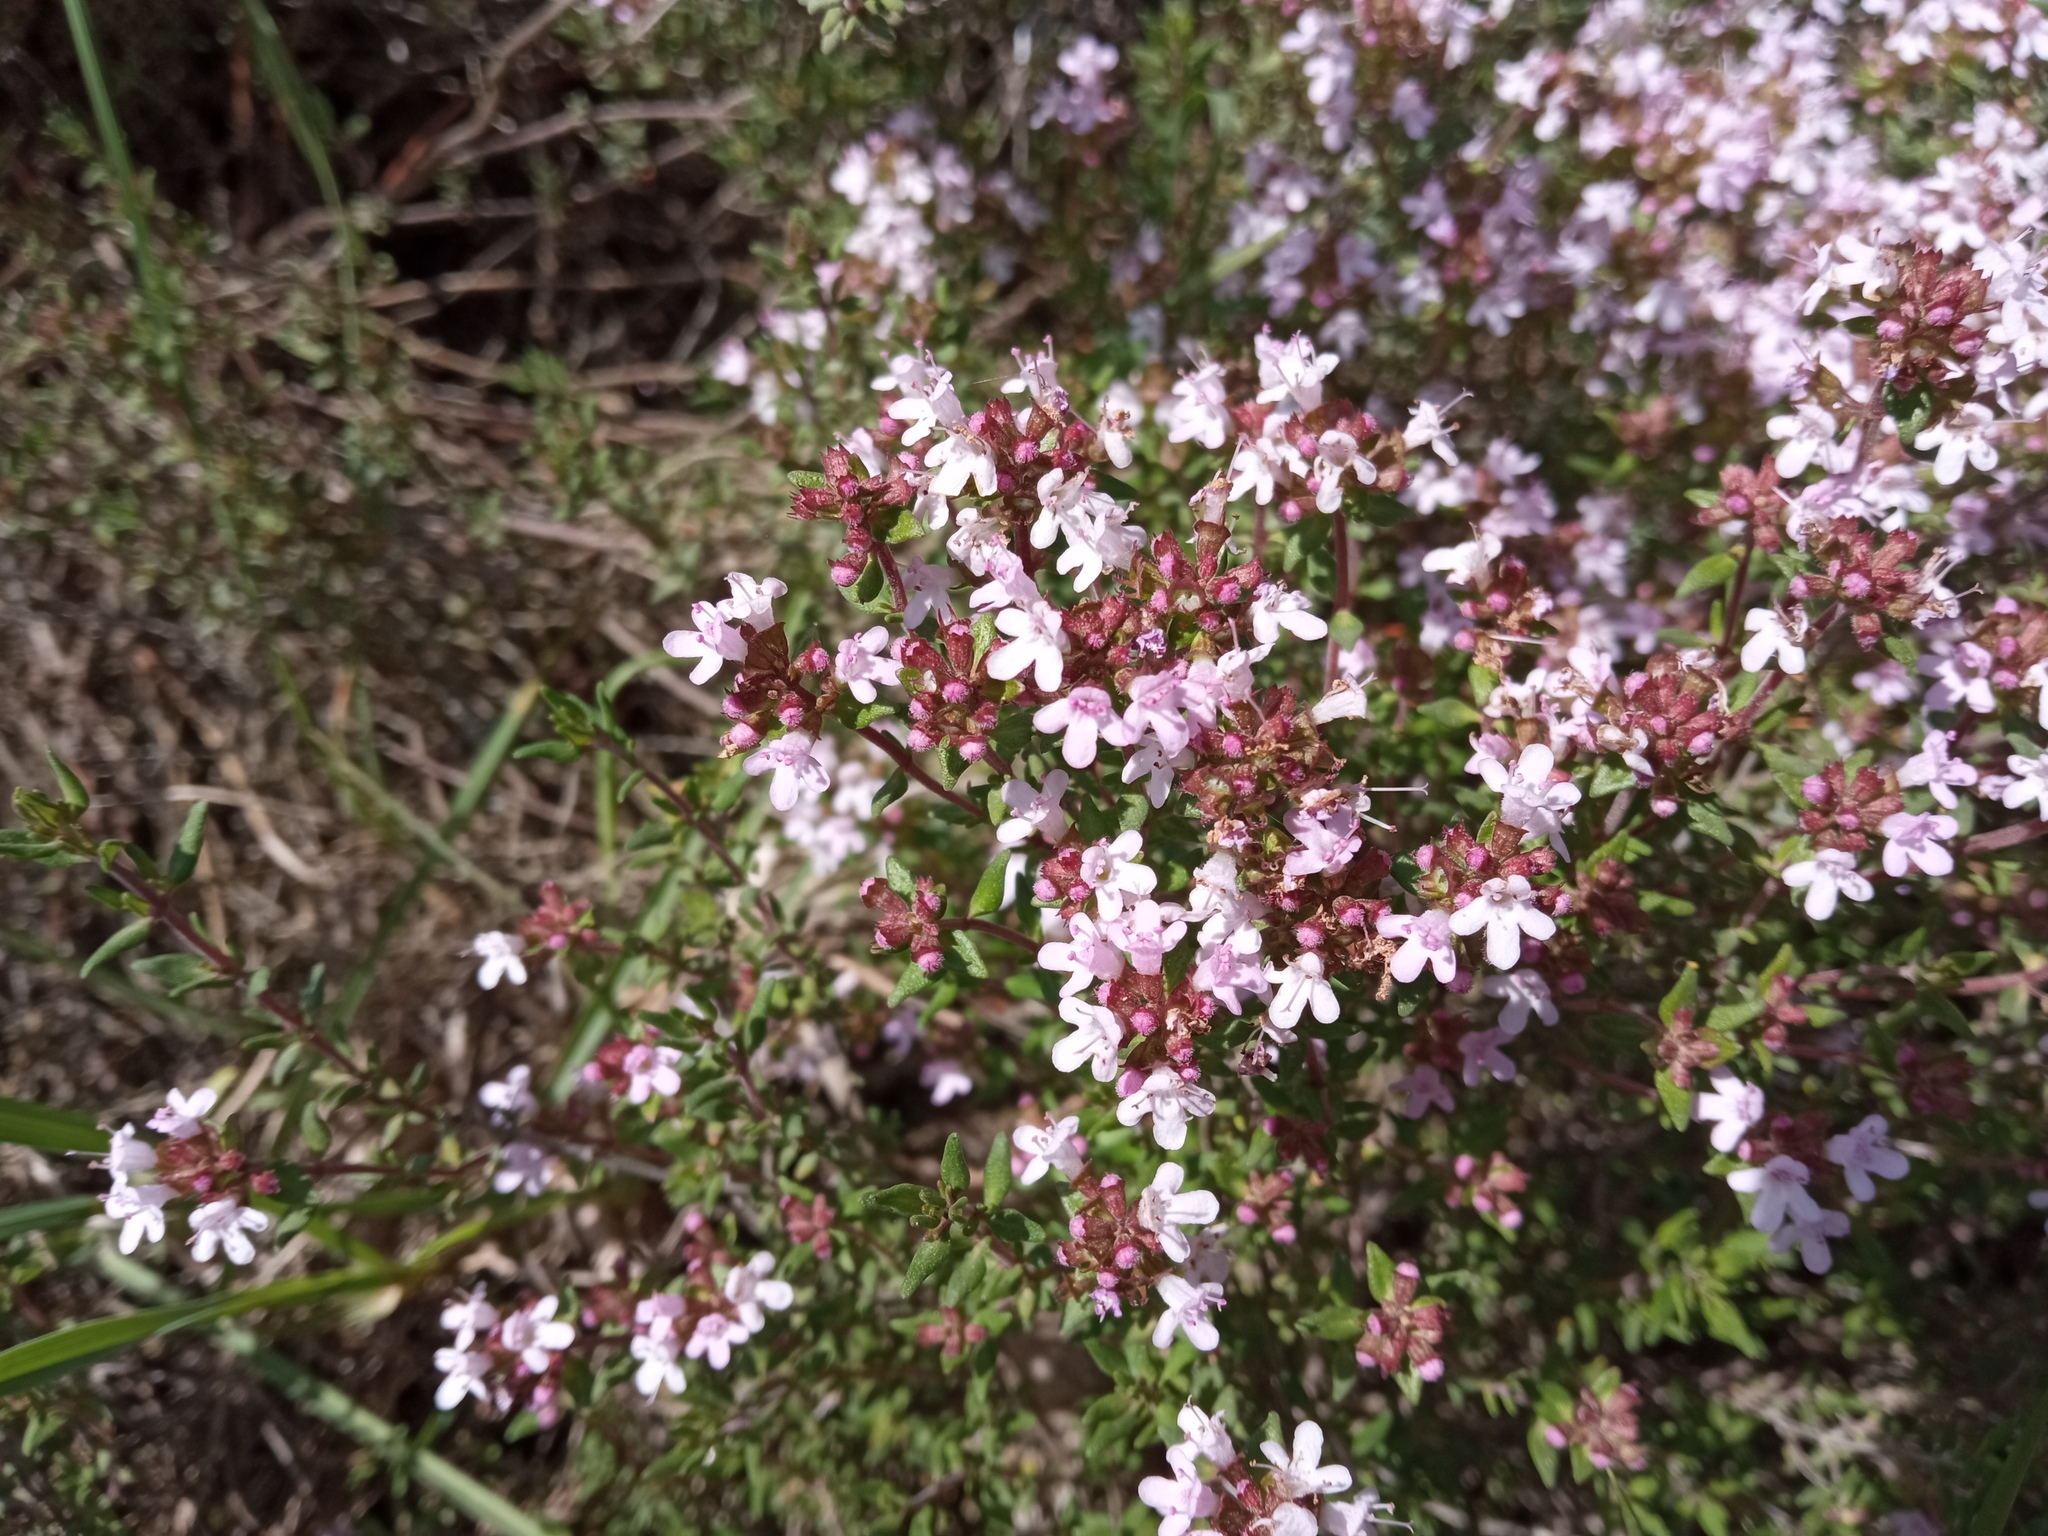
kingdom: Plantae
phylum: Tracheophyta
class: Magnoliopsida
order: Lamiales
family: Lamiaceae
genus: Thymus
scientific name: Thymus vulgaris
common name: Garden thyme
